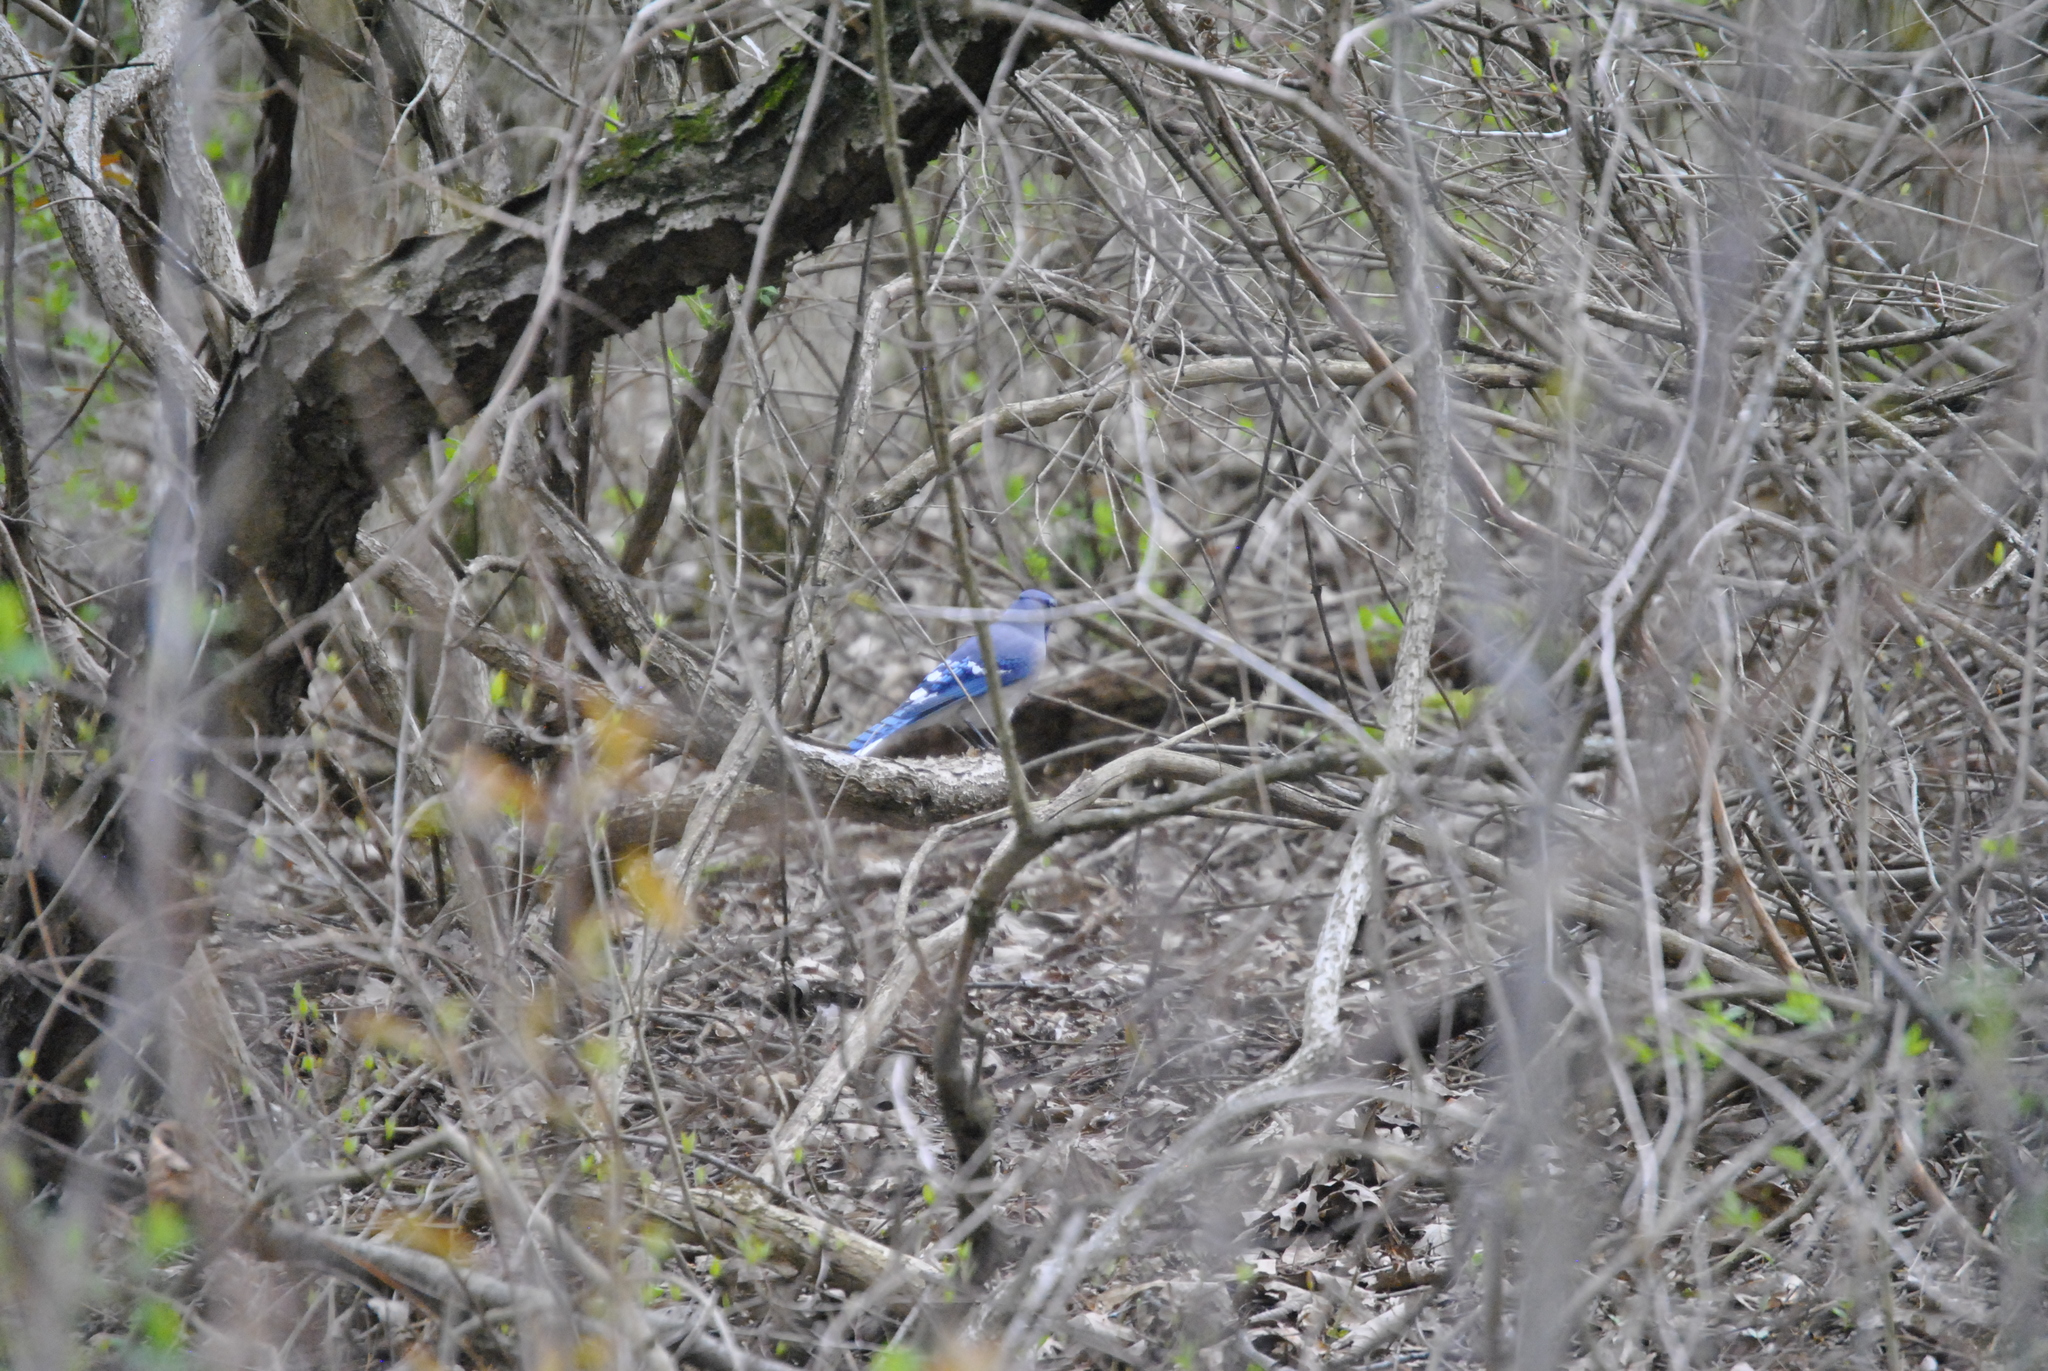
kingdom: Animalia
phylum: Chordata
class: Aves
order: Passeriformes
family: Corvidae
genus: Cyanocitta
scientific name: Cyanocitta cristata
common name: Blue jay
